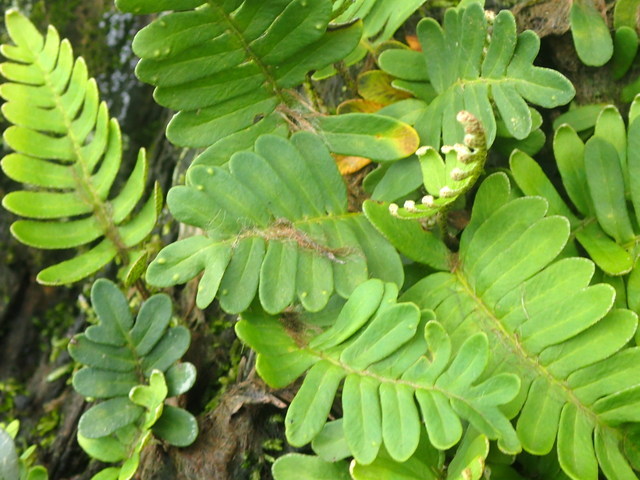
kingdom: Plantae
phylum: Tracheophyta
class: Polypodiopsida
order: Polypodiales
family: Polypodiaceae
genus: Pleopeltis
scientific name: Pleopeltis michauxiana
